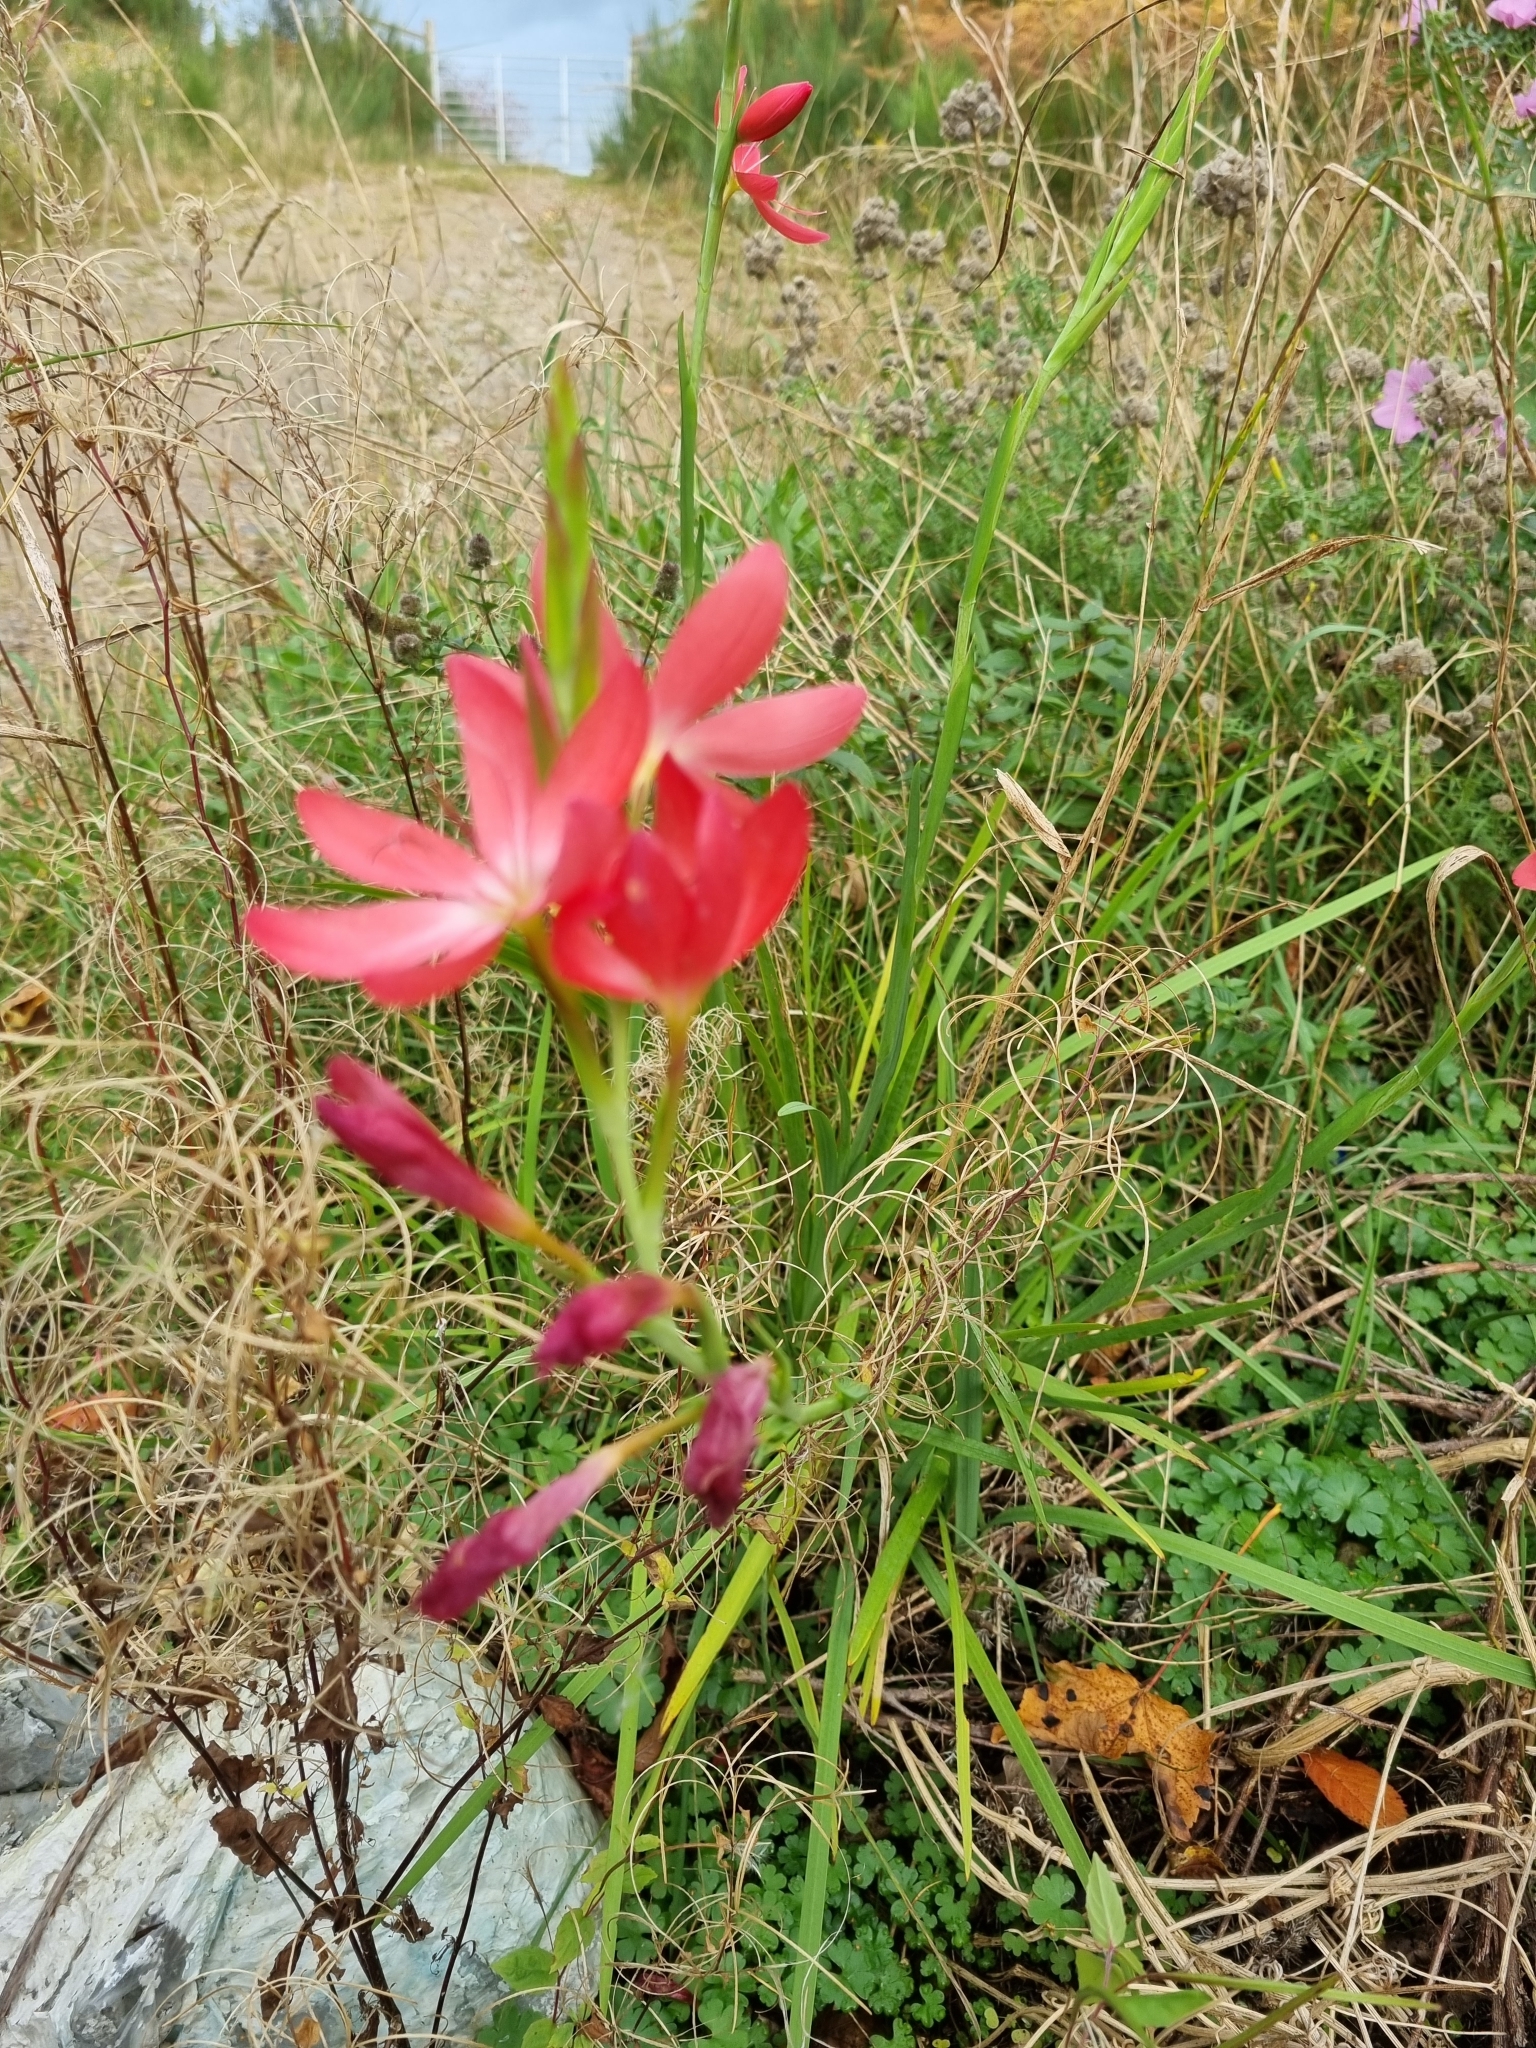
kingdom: Plantae
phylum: Tracheophyta
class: Liliopsida
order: Asparagales
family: Iridaceae
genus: Hesperantha
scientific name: Hesperantha coccinea
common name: River-lily
